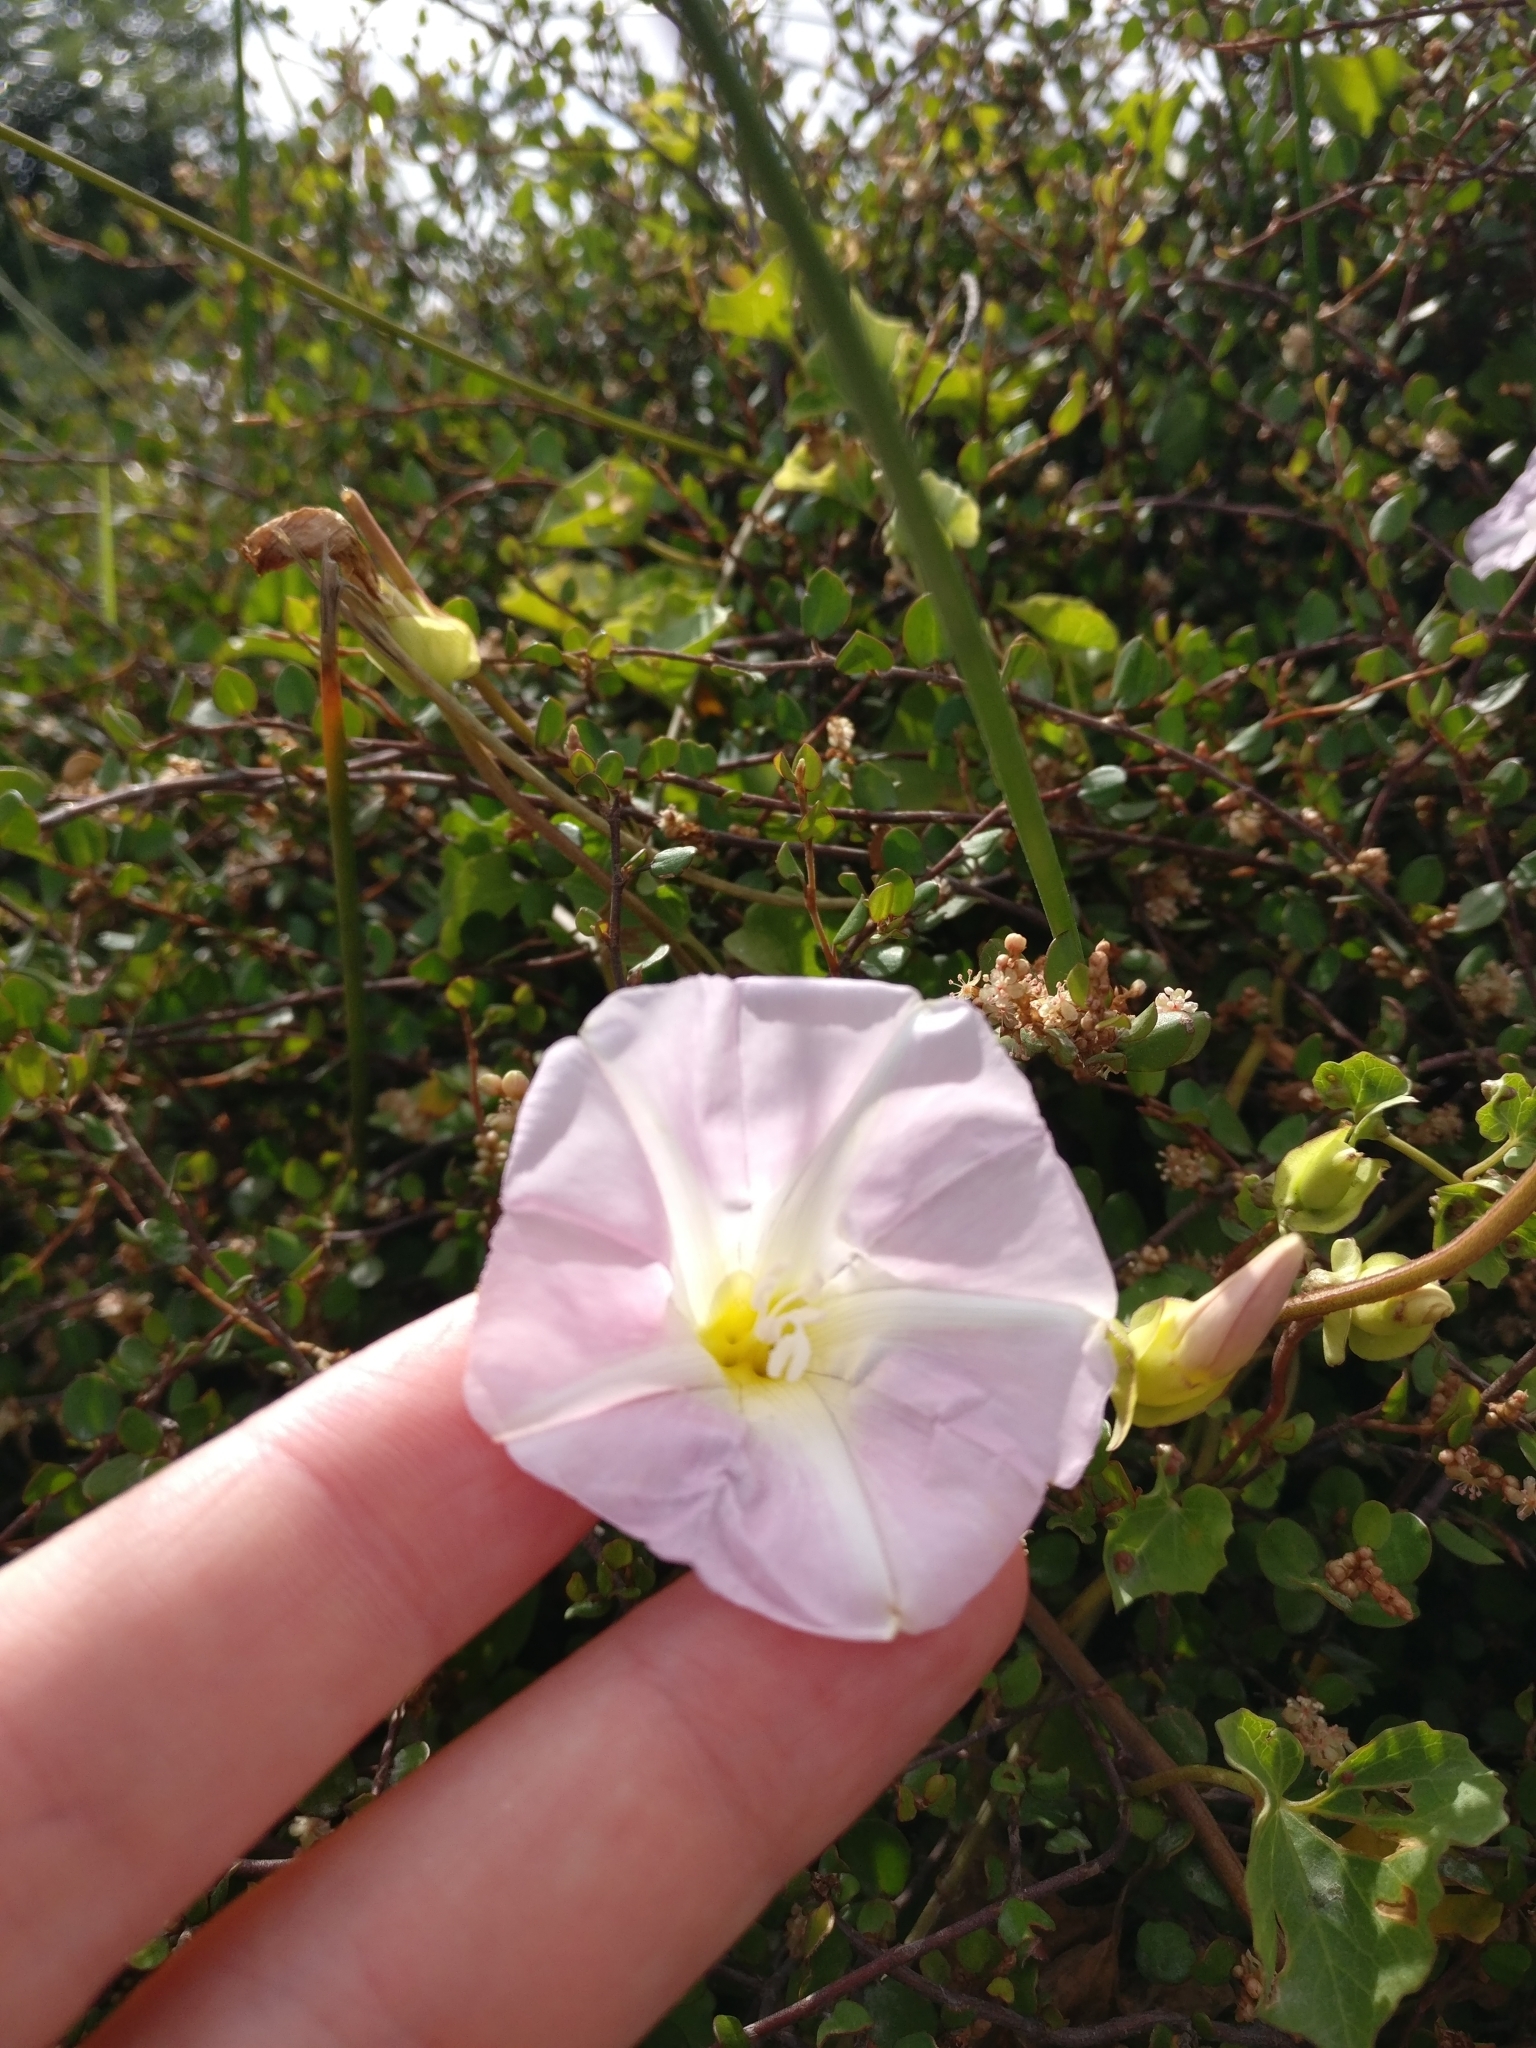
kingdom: Plantae
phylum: Tracheophyta
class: Magnoliopsida
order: Solanales
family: Convolvulaceae
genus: Calystegia
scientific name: Calystegia
